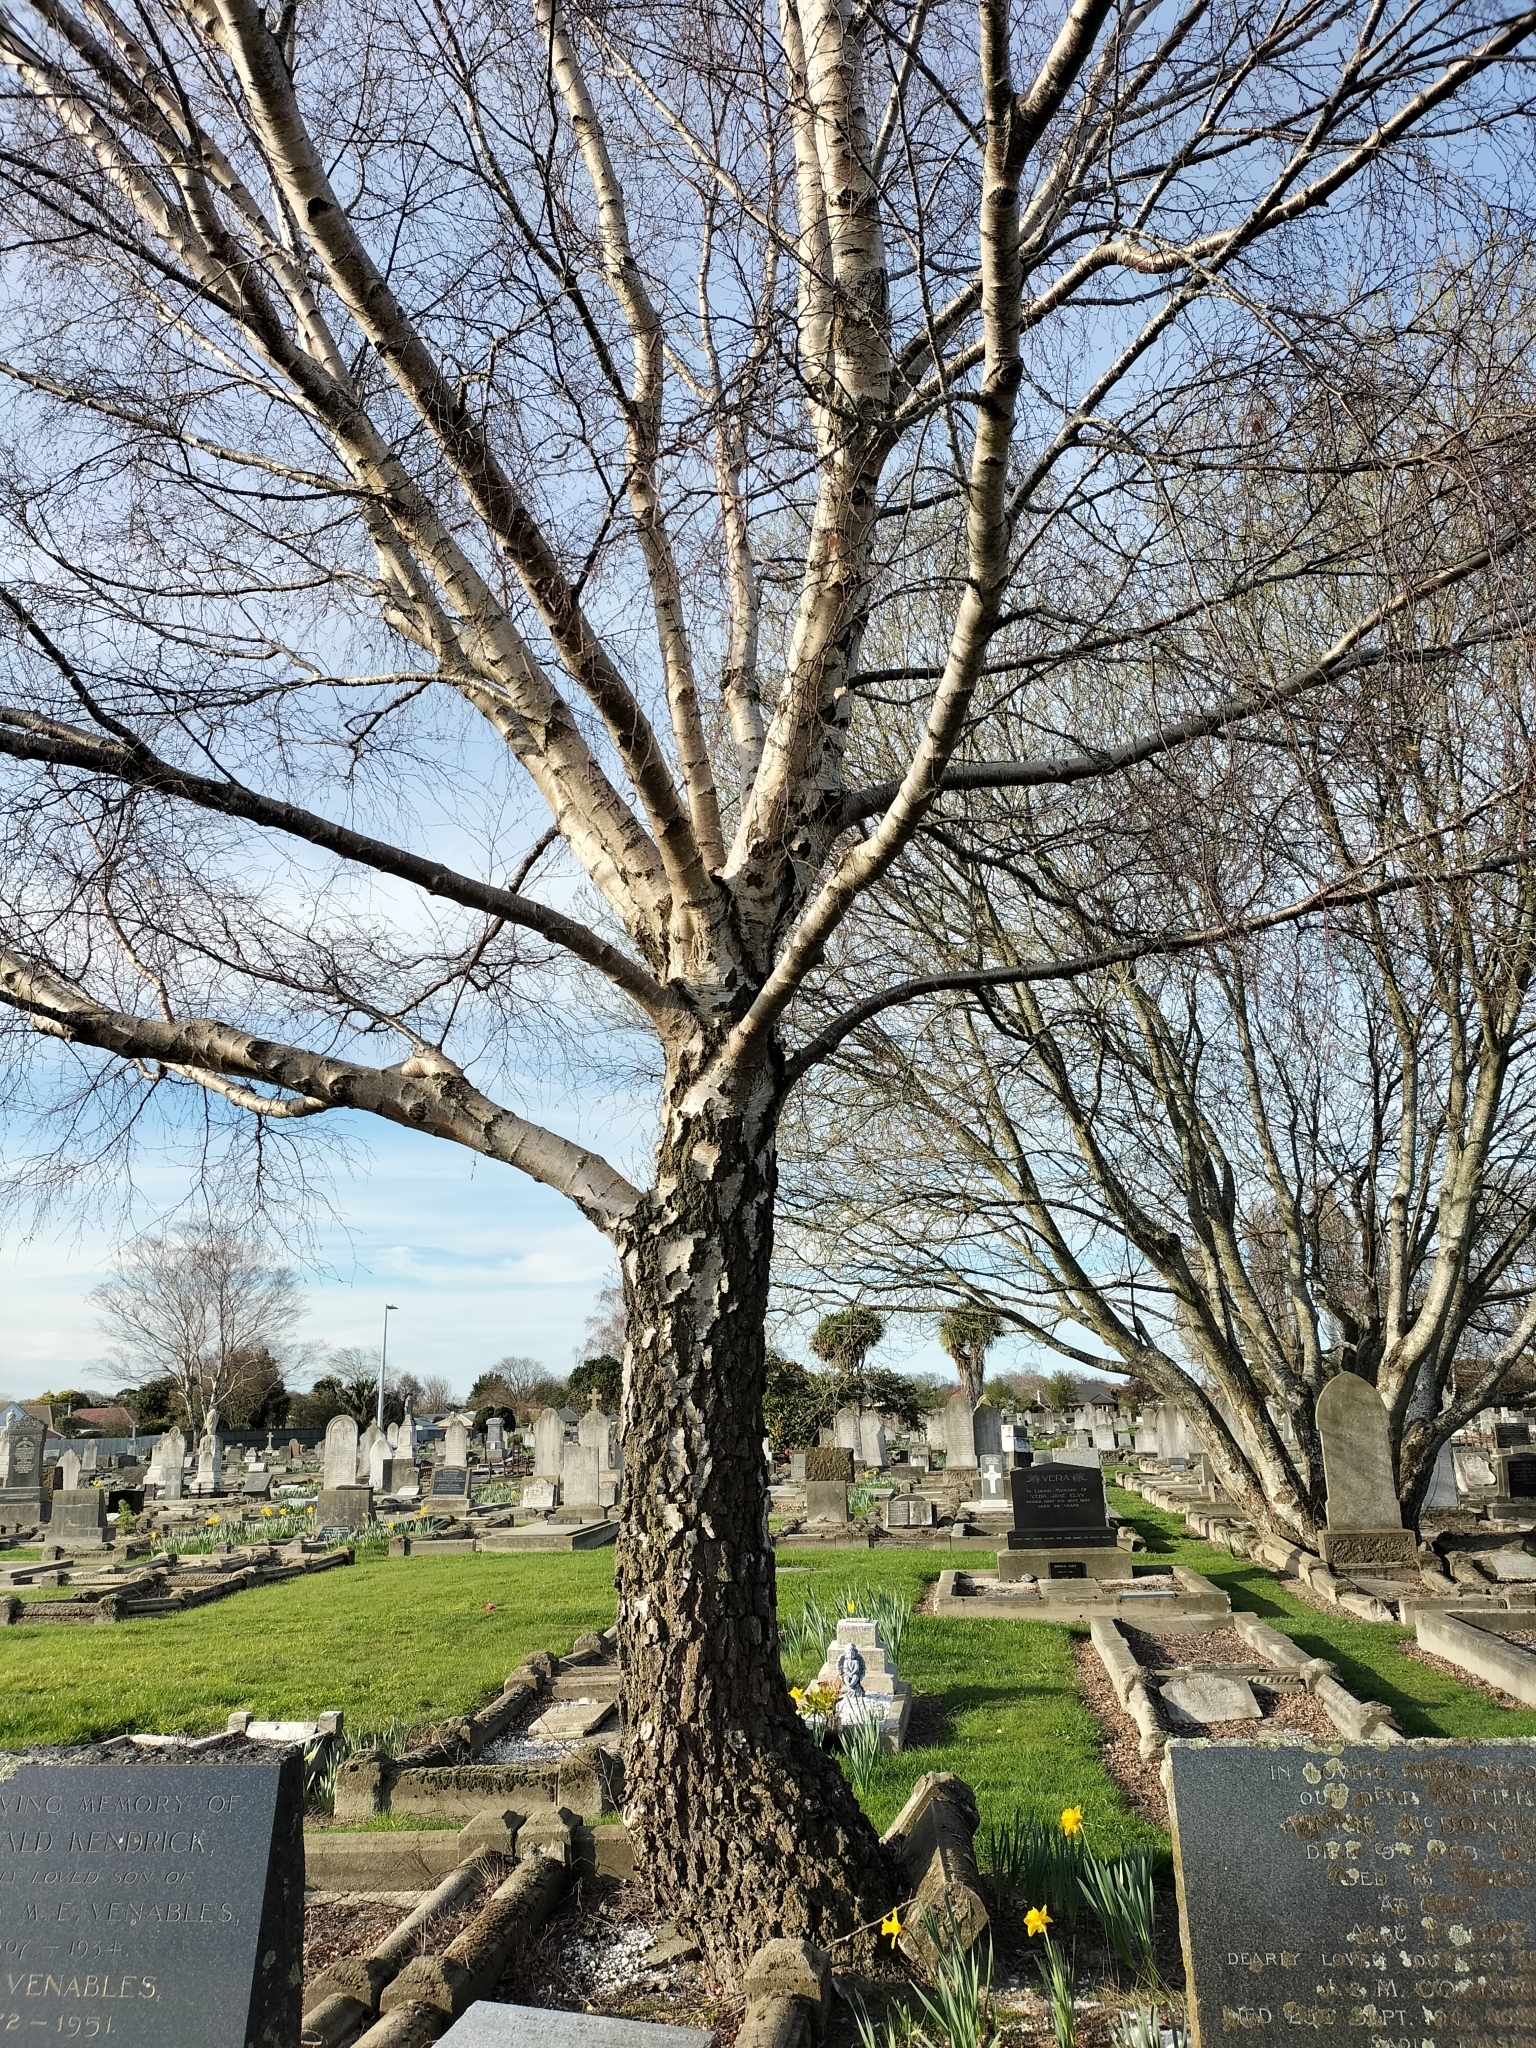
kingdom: Plantae
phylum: Tracheophyta
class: Magnoliopsida
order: Fagales
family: Betulaceae
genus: Betula
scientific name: Betula pendula
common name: Silver birch
